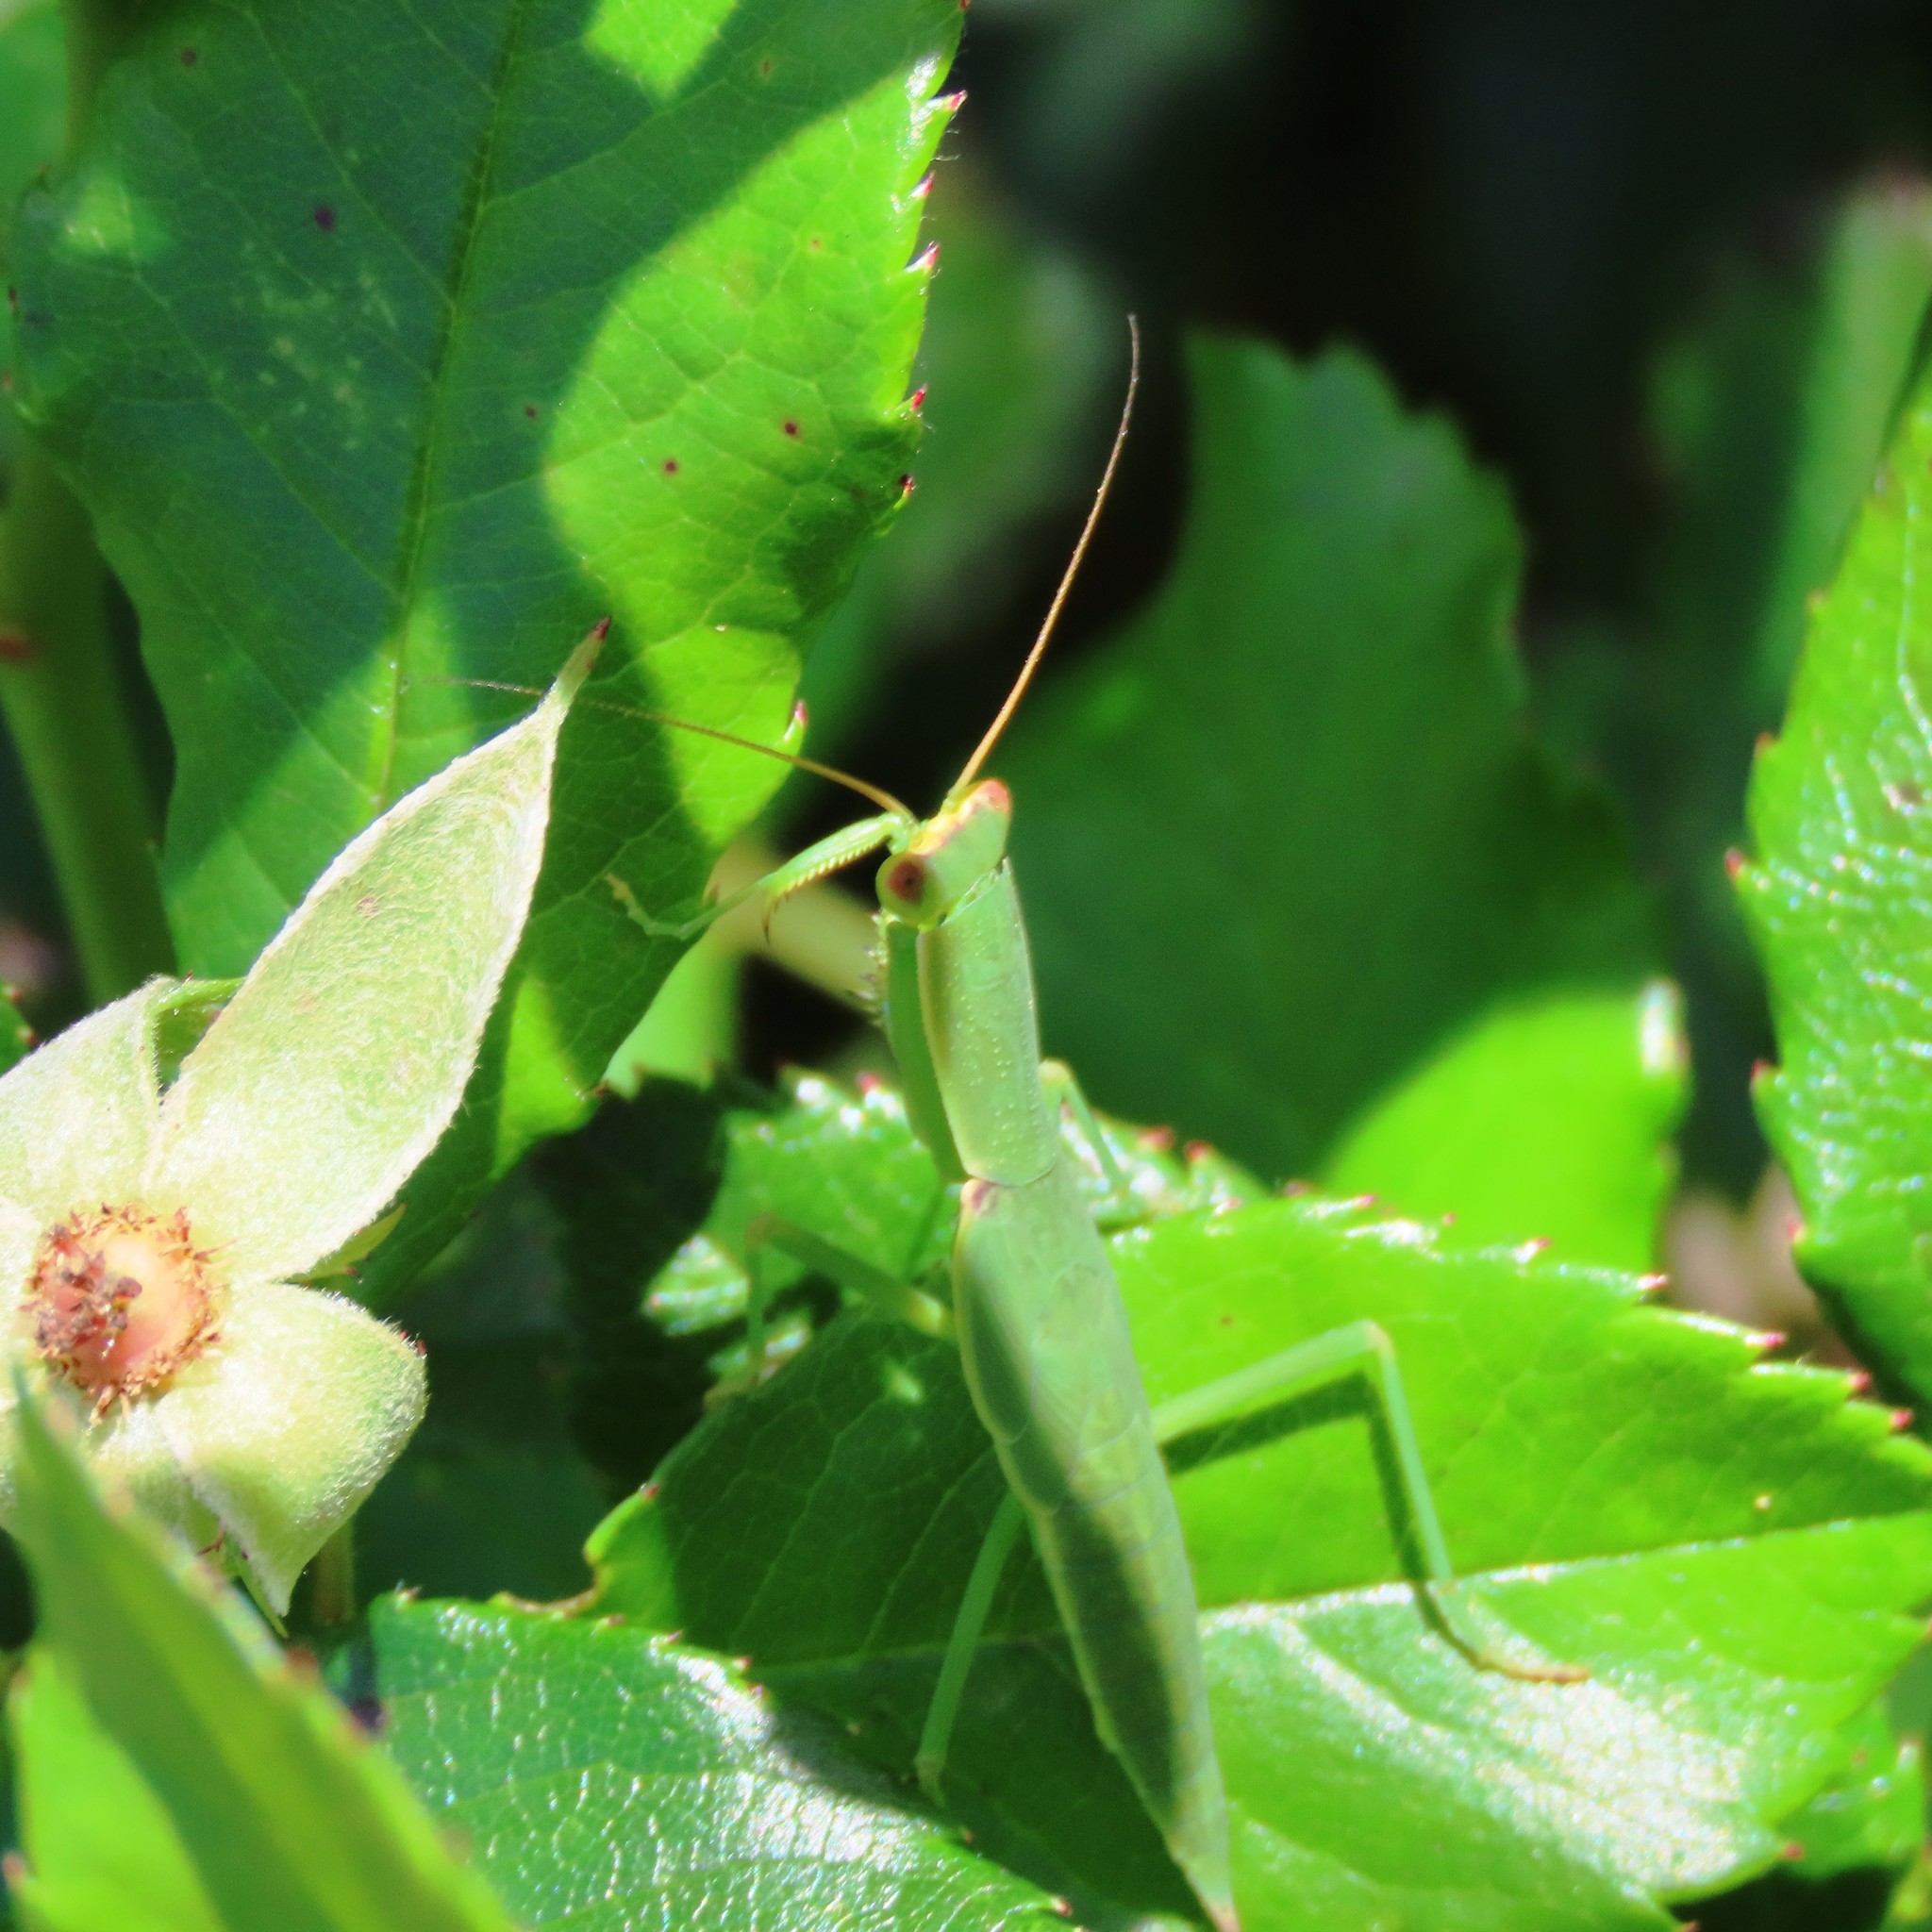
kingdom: Animalia
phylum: Arthropoda
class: Insecta
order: Mantodea
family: Mantidae
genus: Orthodera
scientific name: Orthodera ministralis
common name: Mantis
